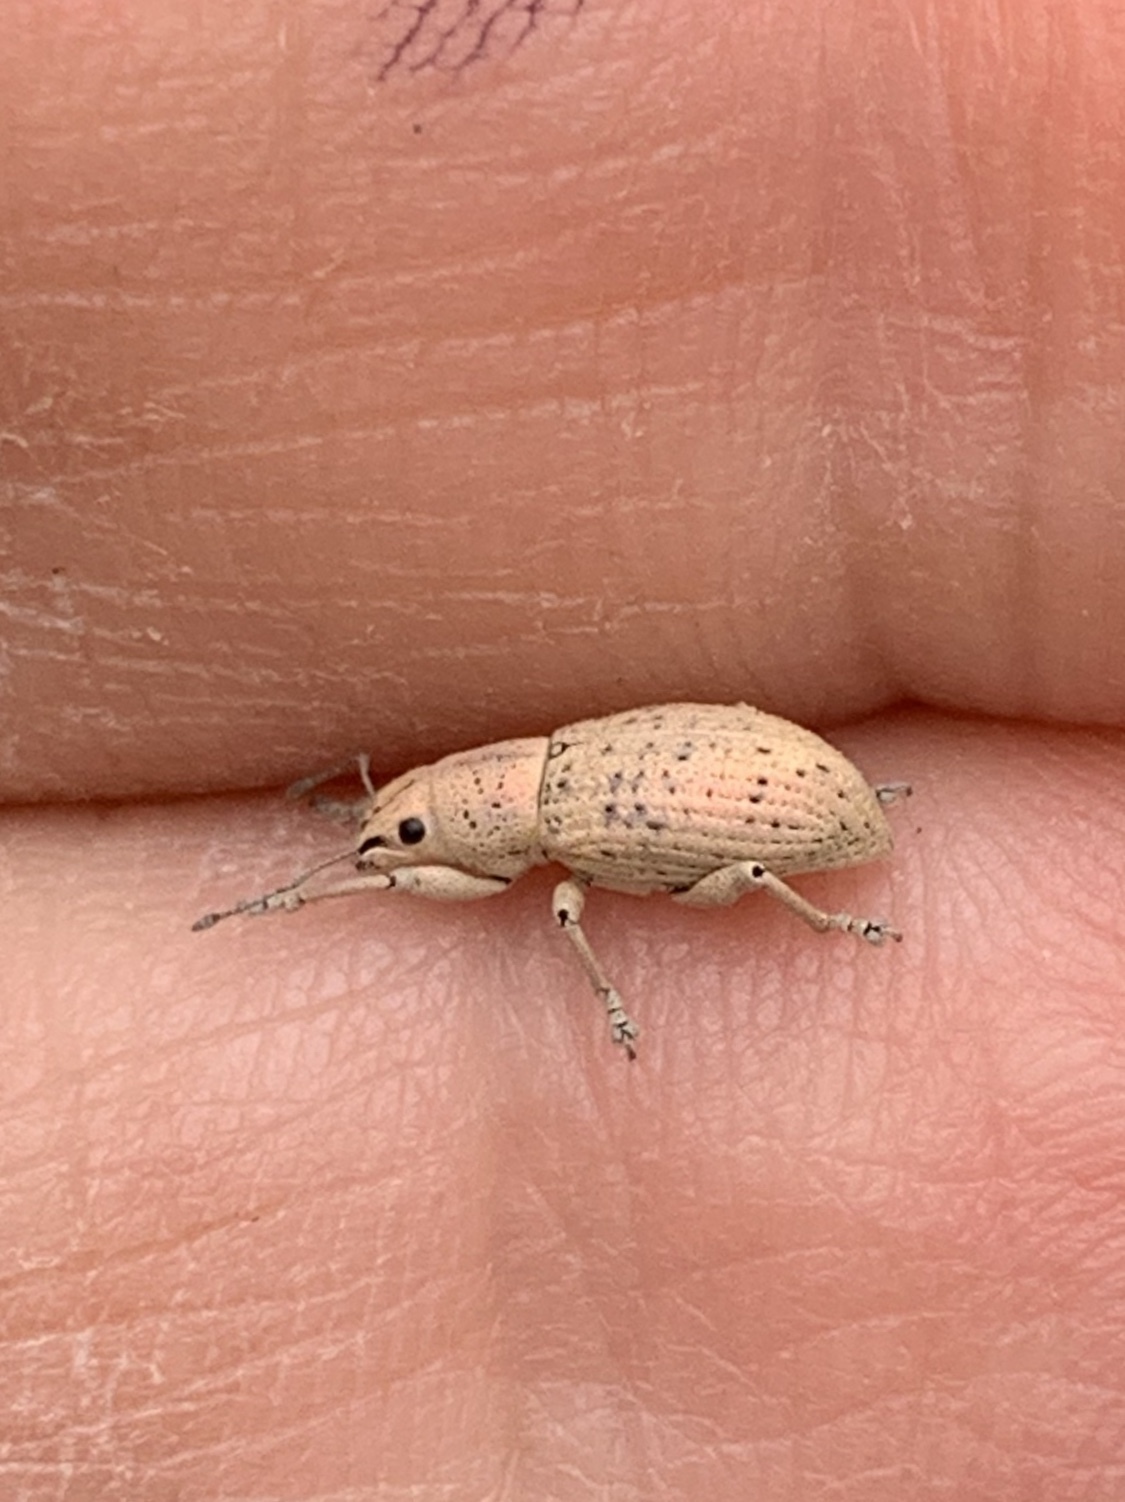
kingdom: Animalia
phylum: Arthropoda
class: Insecta
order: Coleoptera
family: Curculionidae
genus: Artipus
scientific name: Artipus floridanus
